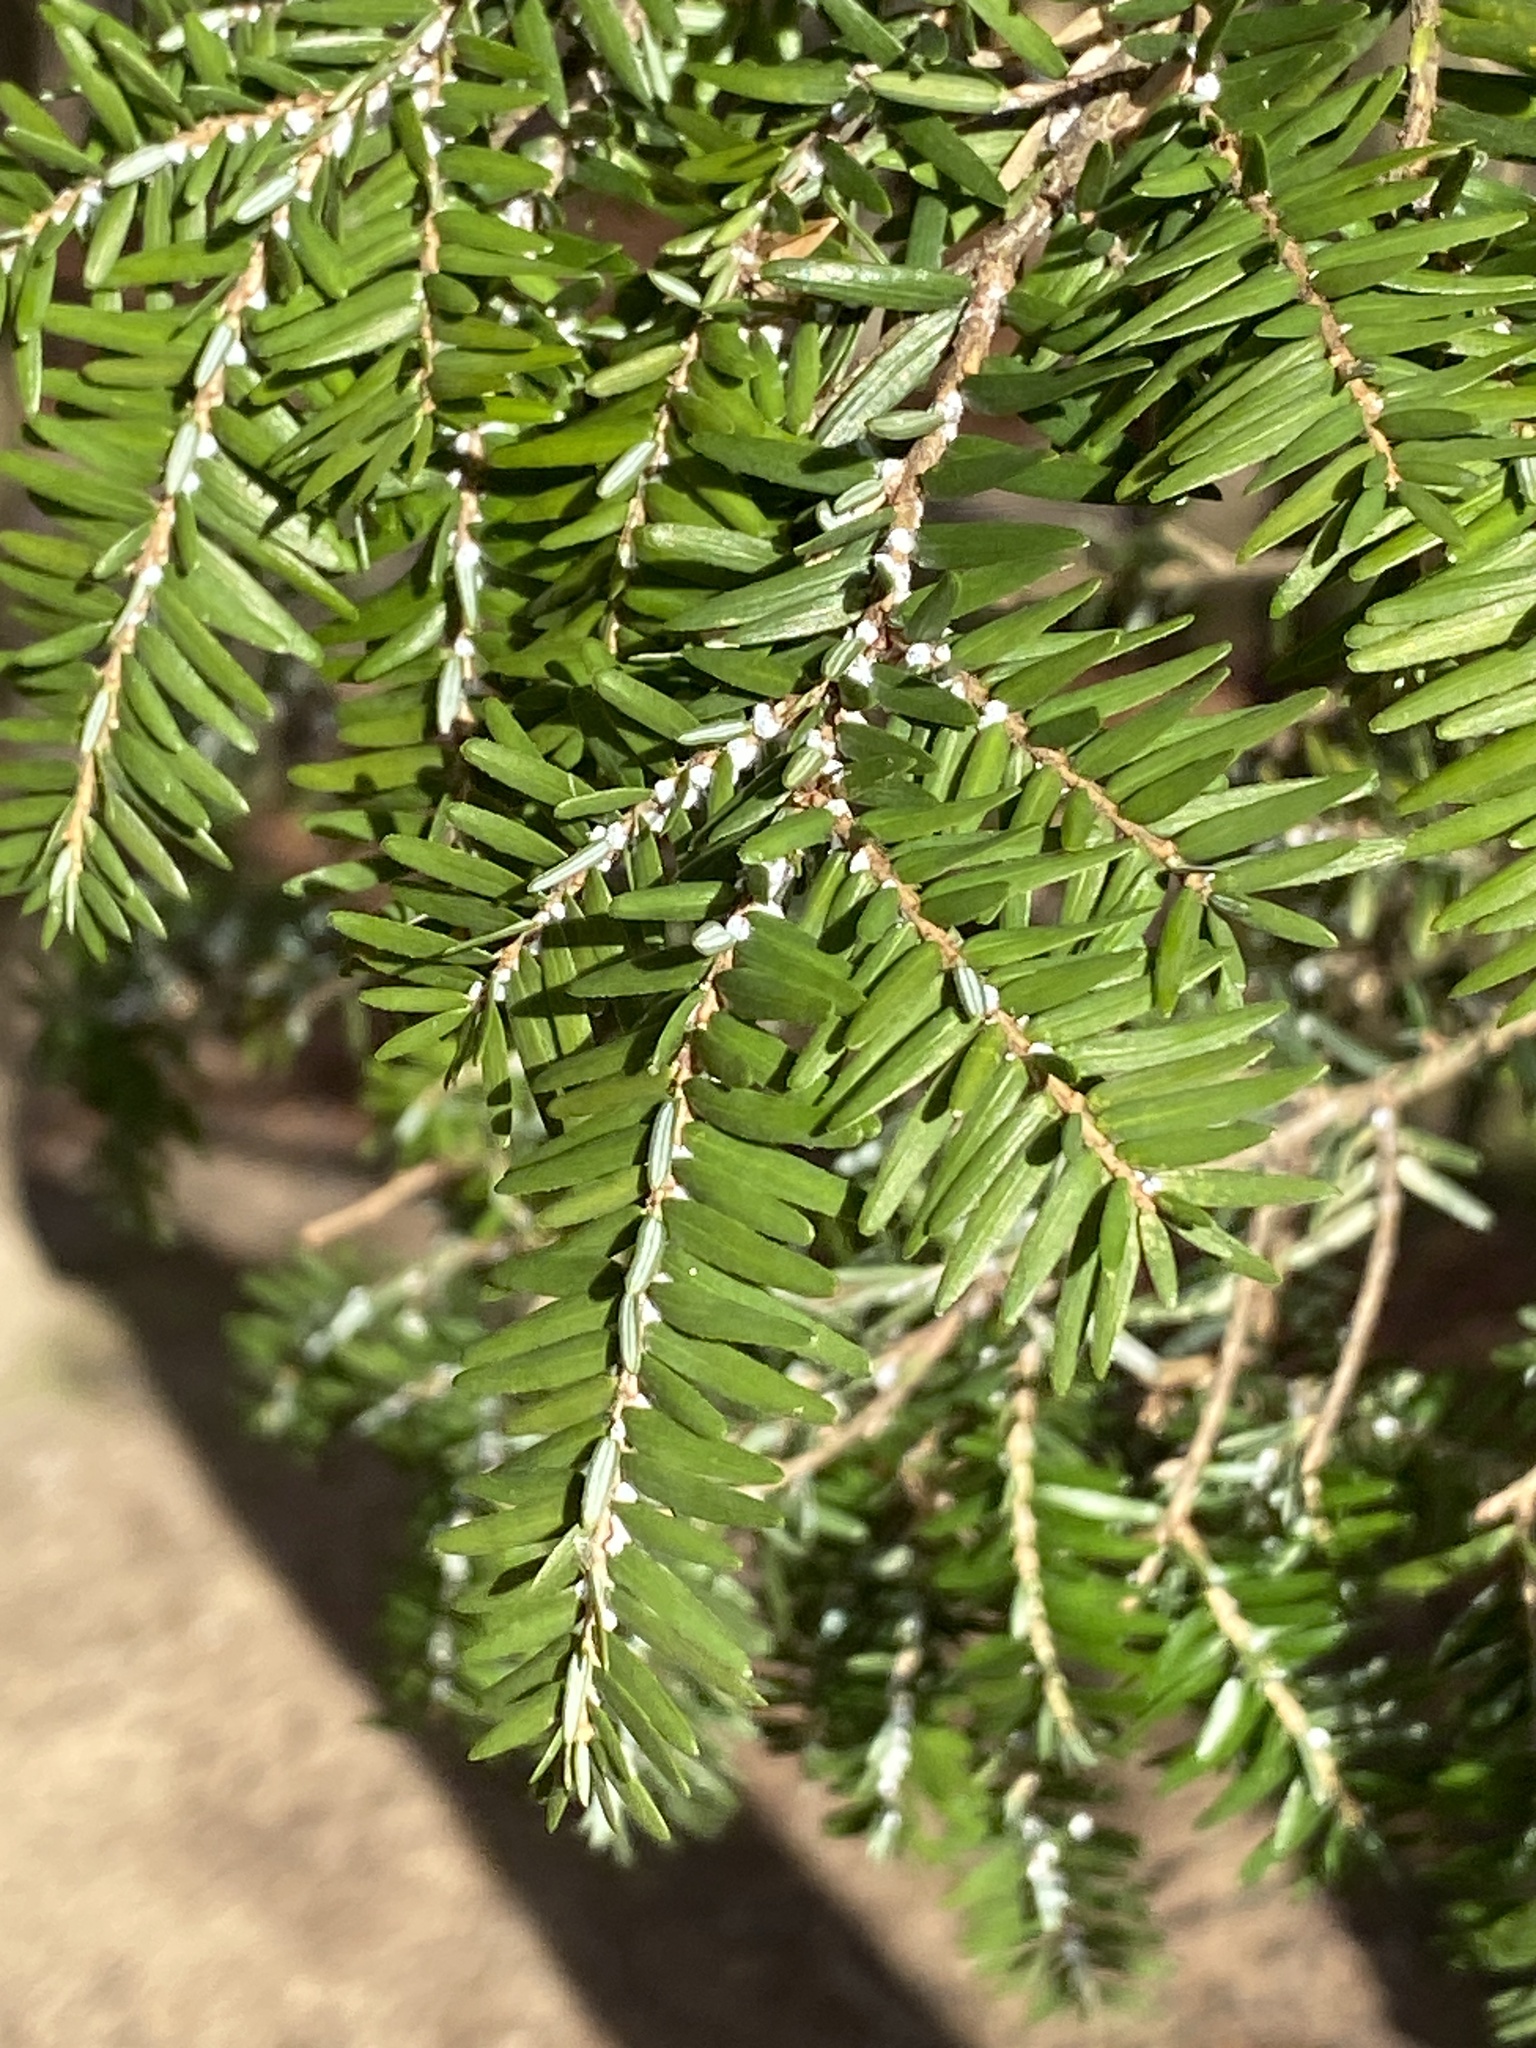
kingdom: Animalia
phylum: Arthropoda
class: Insecta
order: Hemiptera
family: Adelgidae
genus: Adelges
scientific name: Adelges tsugae
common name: Hemlock woolly adelgid
